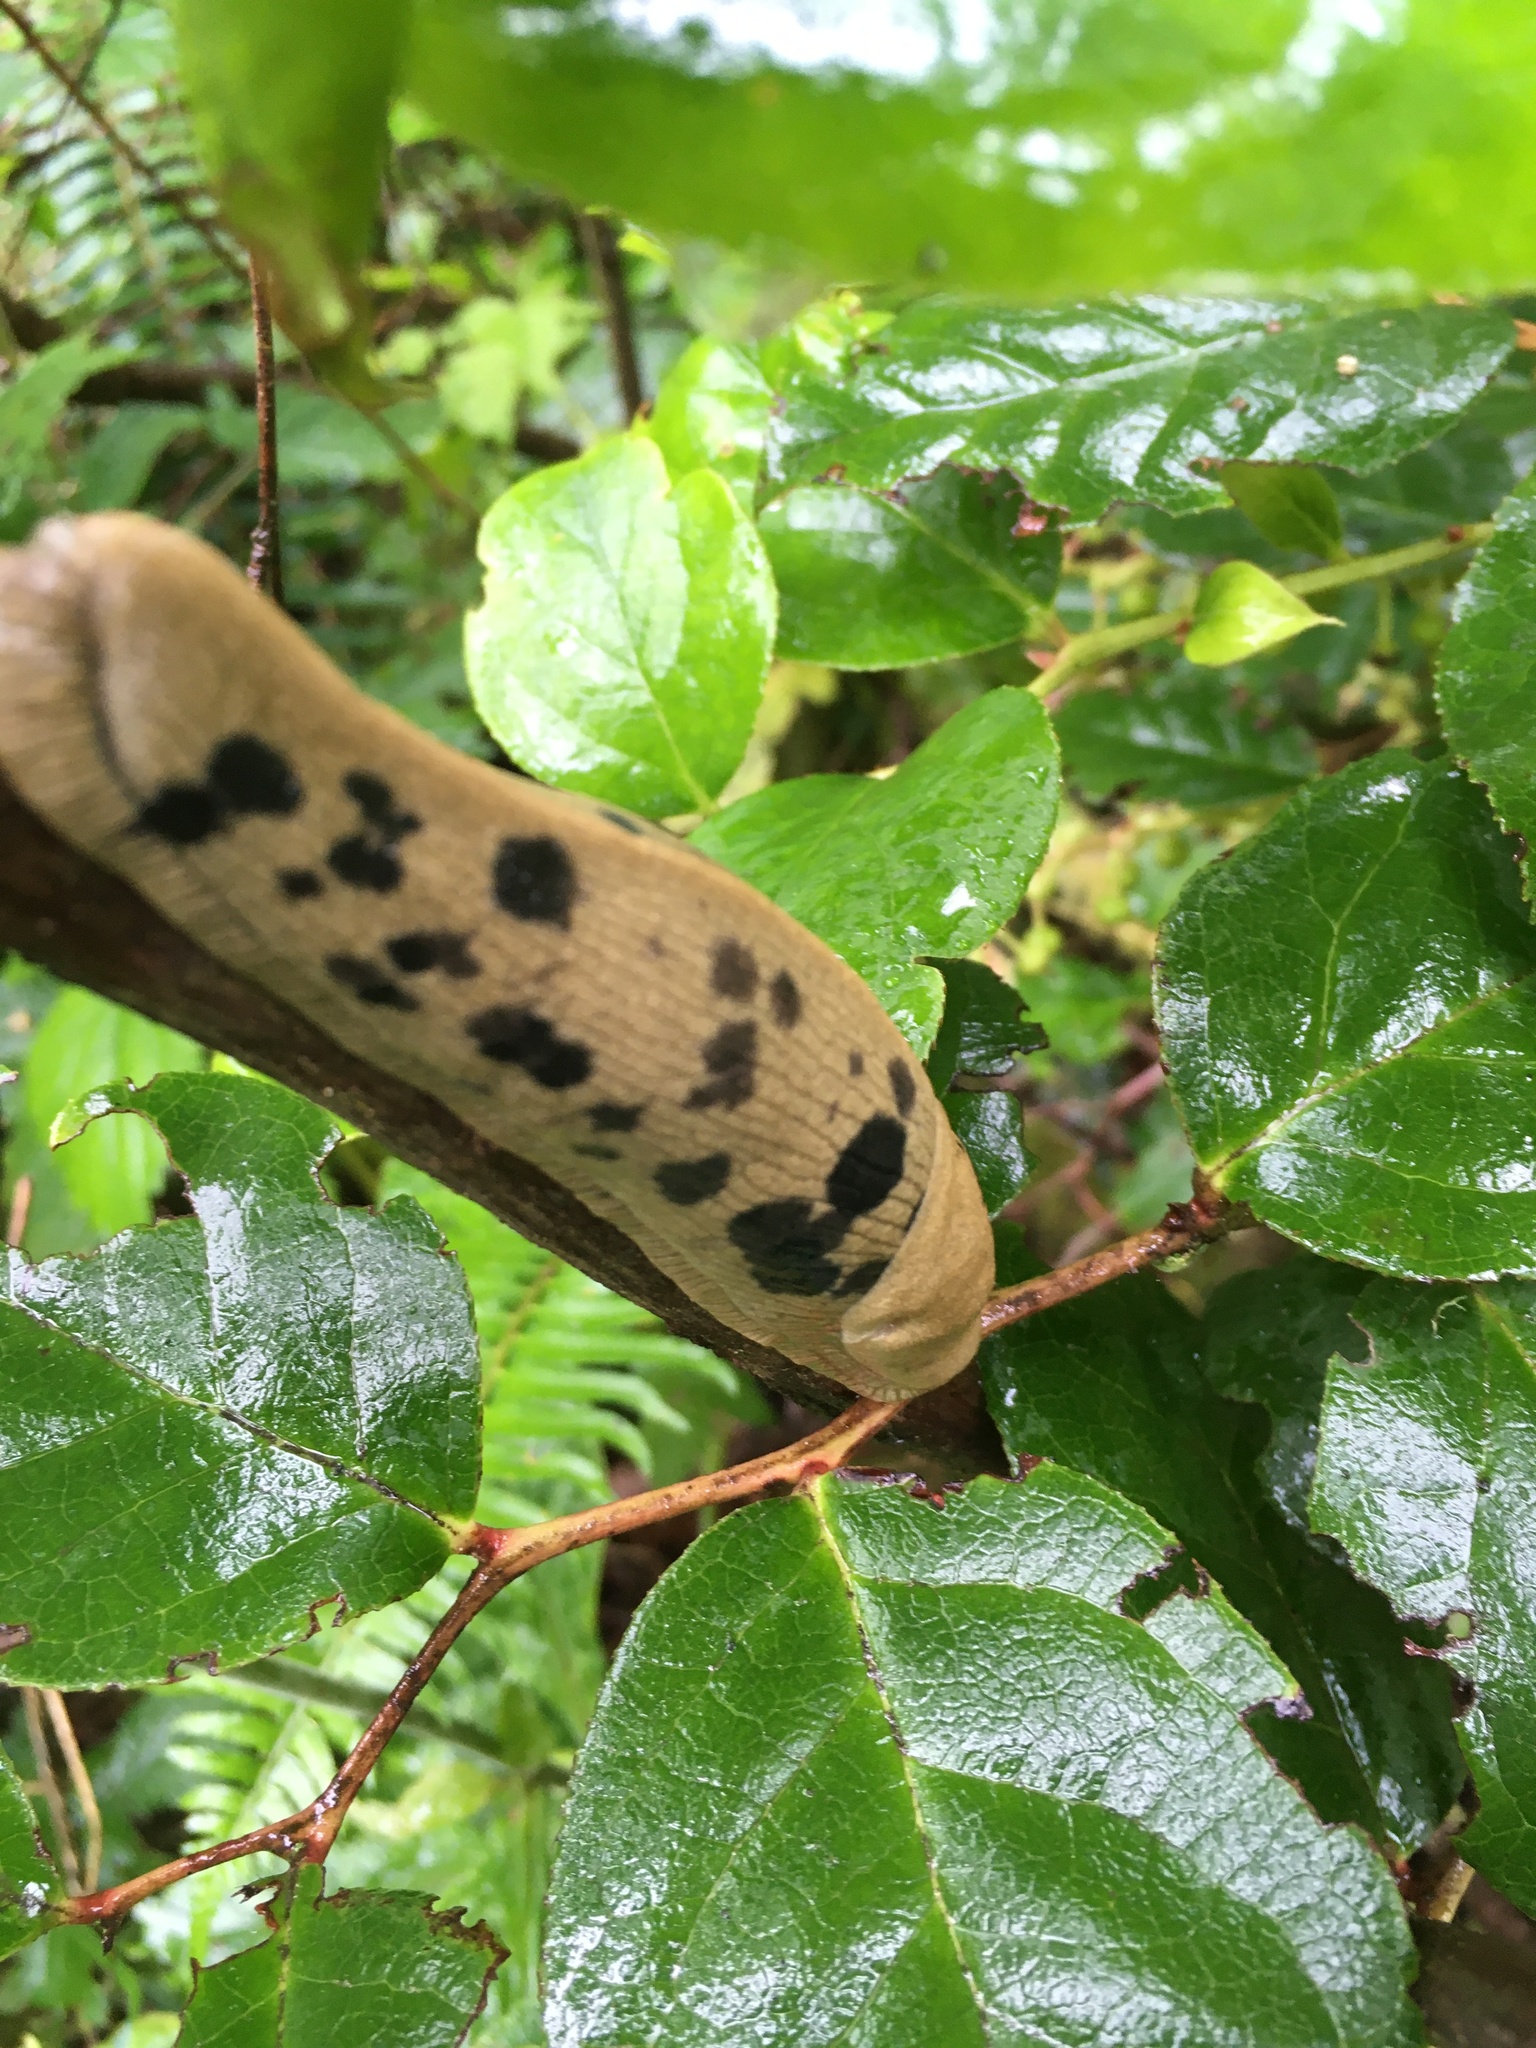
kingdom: Animalia
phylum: Mollusca
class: Gastropoda
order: Stylommatophora
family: Ariolimacidae
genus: Ariolimax
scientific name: Ariolimax columbianus
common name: Pacific banana slug
